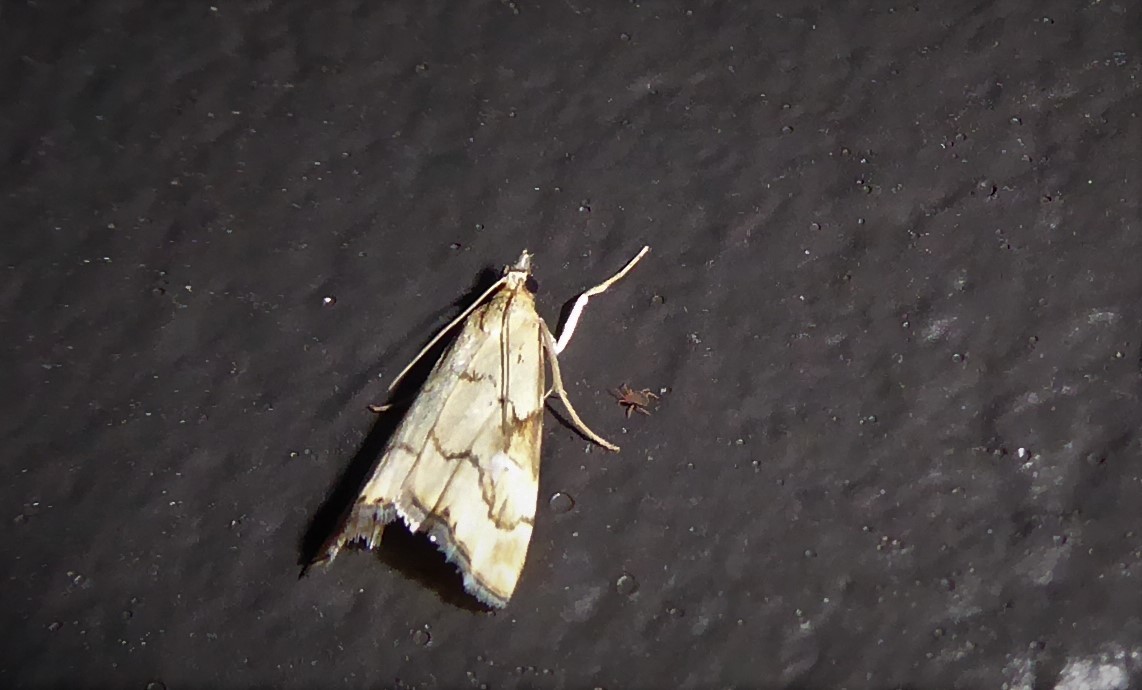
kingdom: Animalia
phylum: Arthropoda
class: Insecta
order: Lepidoptera
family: Crambidae
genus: Glaucocharis
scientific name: Glaucocharis lepidella
